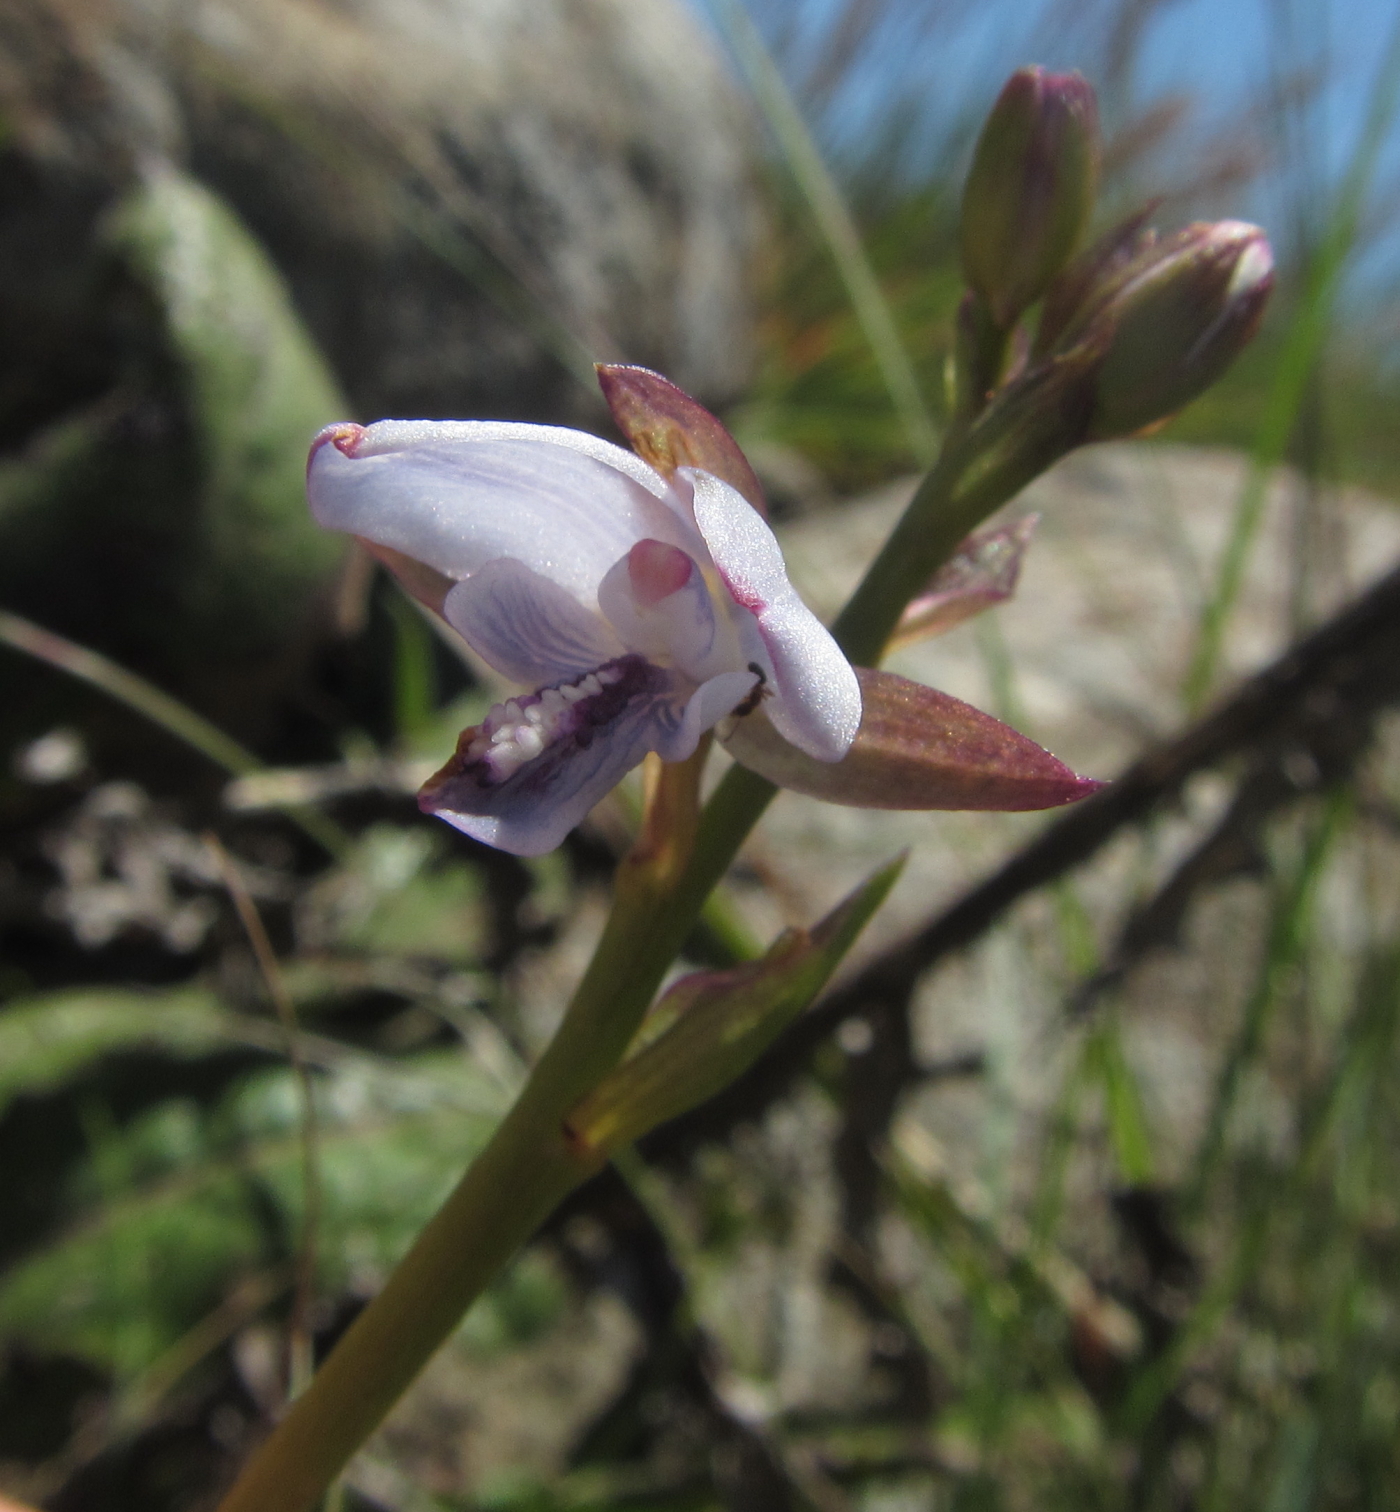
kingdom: Plantae
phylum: Tracheophyta
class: Liliopsida
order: Asparagales
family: Orchidaceae
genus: Eulophia
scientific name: Eulophia zeyheriana
